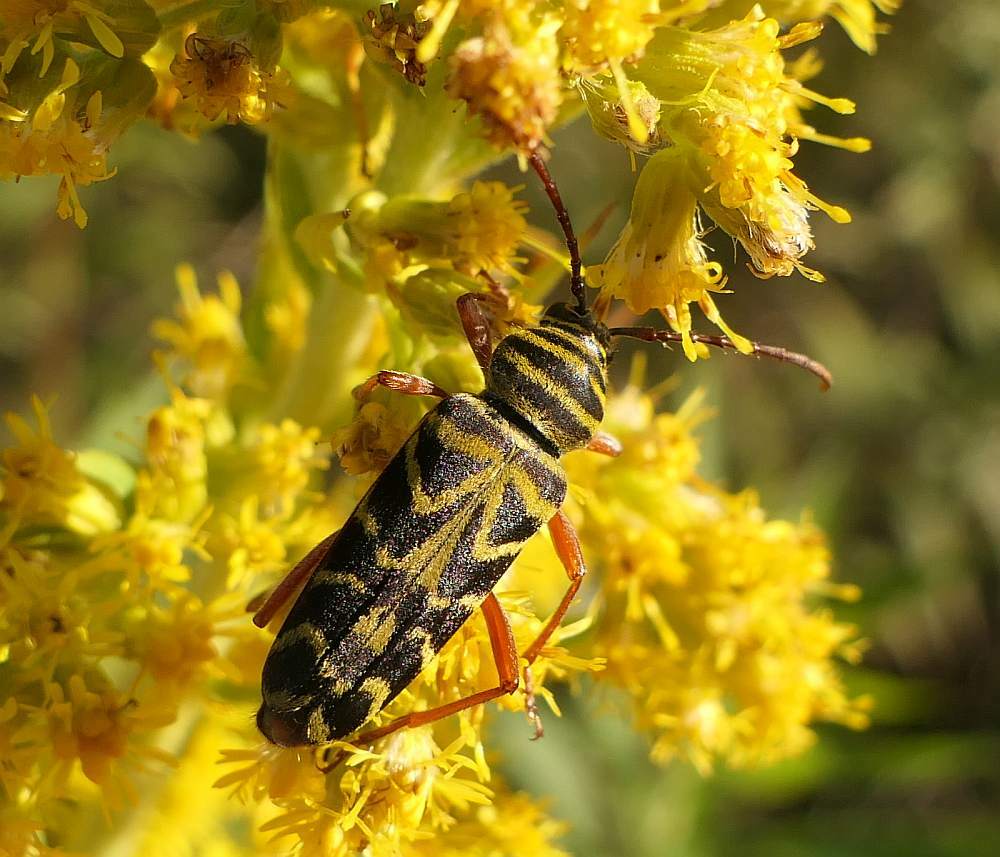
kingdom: Animalia
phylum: Arthropoda
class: Insecta
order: Coleoptera
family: Cerambycidae
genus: Megacyllene
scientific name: Megacyllene robiniae
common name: Locust borer
